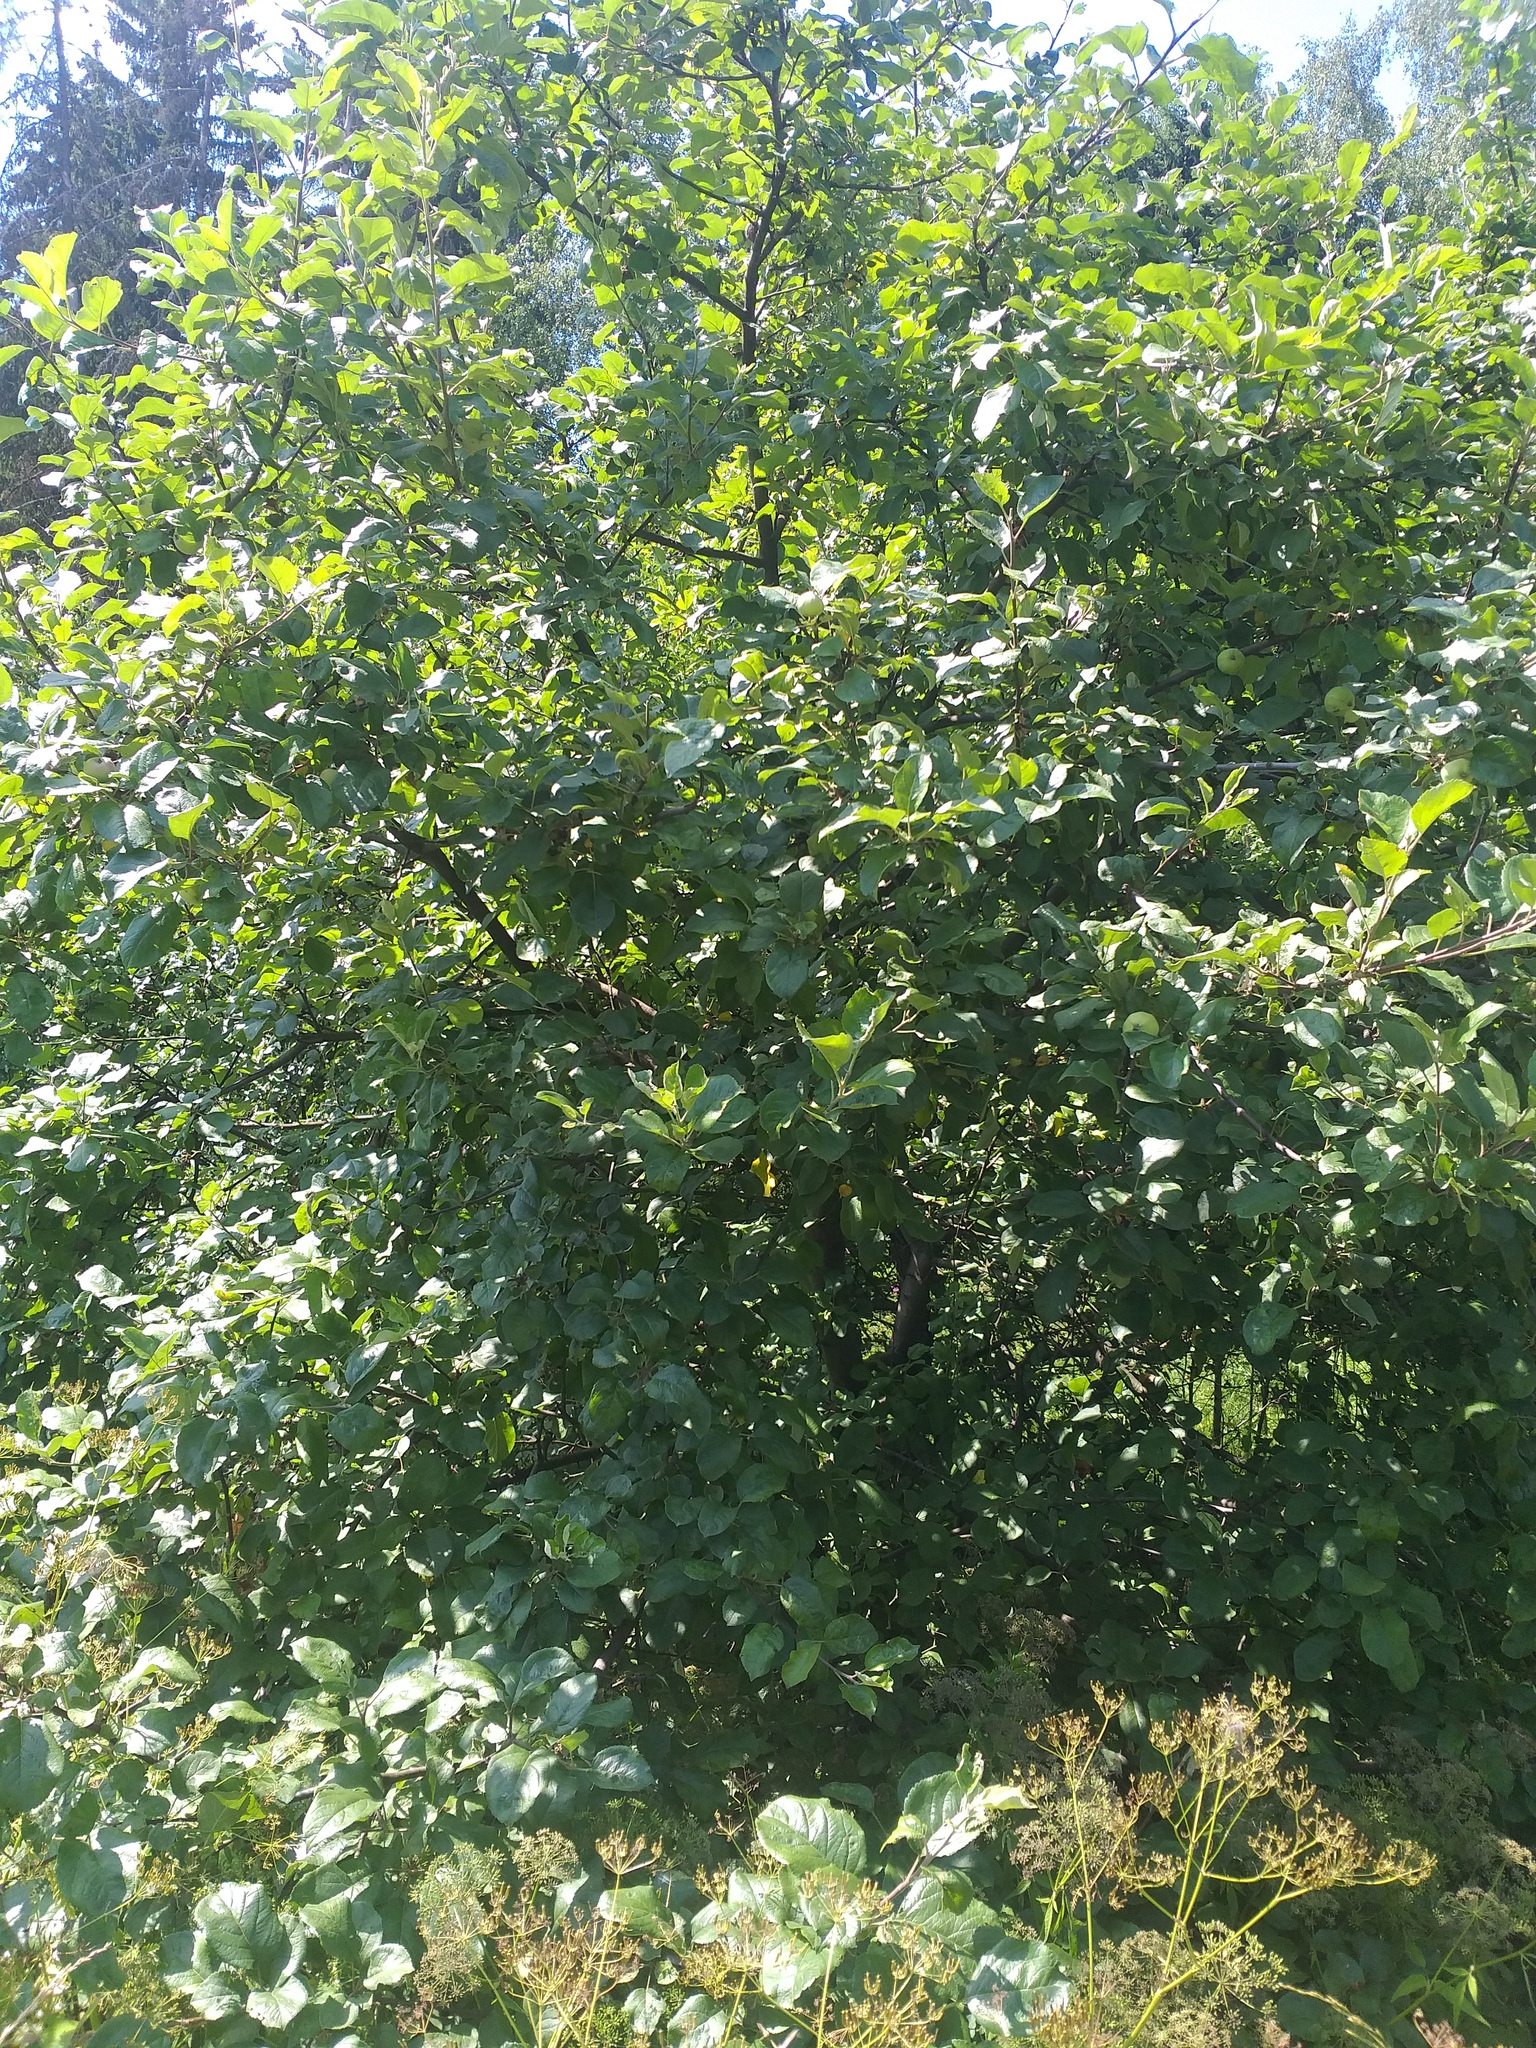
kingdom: Plantae
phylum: Tracheophyta
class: Magnoliopsida
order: Rosales
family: Rosaceae
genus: Malus
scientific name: Malus domestica
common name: Apple
